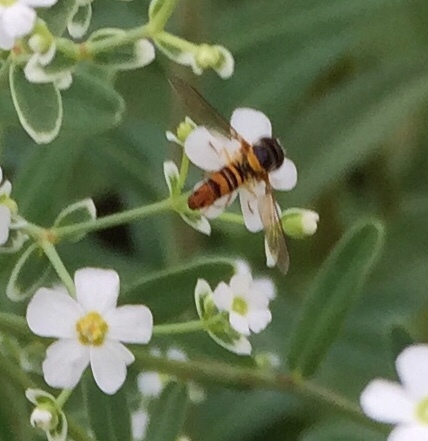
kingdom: Animalia
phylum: Arthropoda
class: Insecta
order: Diptera
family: Syrphidae
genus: Allograpta
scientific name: Allograpta obliqua
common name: Common oblique syrphid
